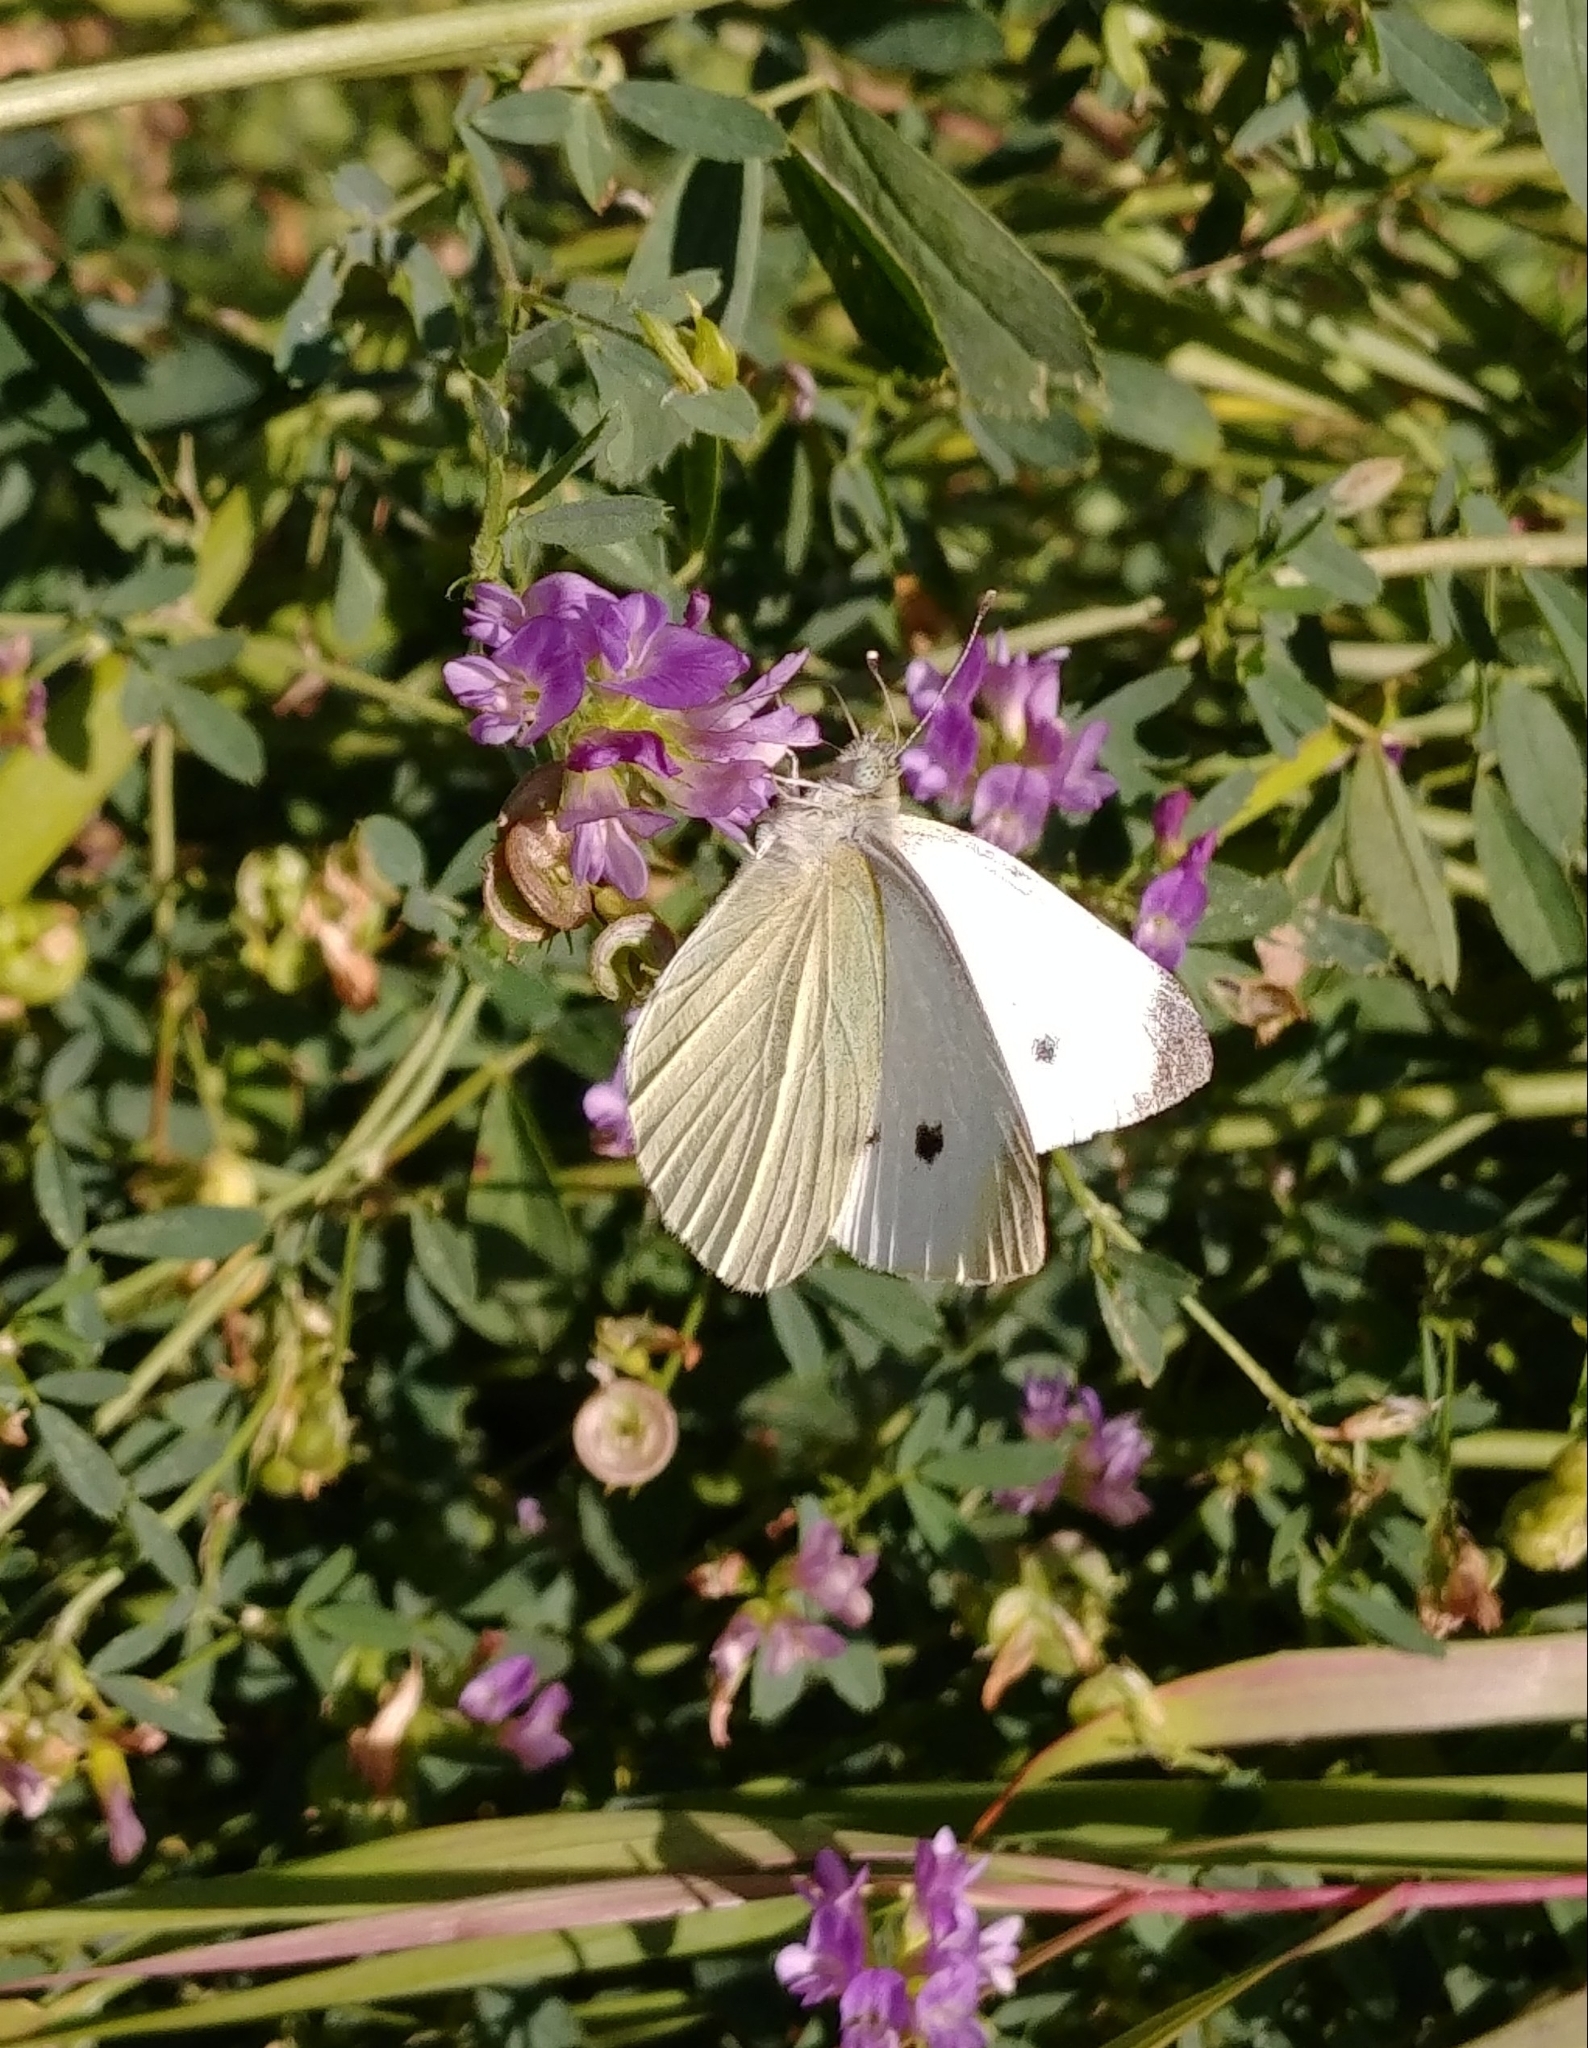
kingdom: Animalia
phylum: Arthropoda
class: Insecta
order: Lepidoptera
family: Pieridae
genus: Pieris
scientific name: Pieris rapae
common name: Small white
